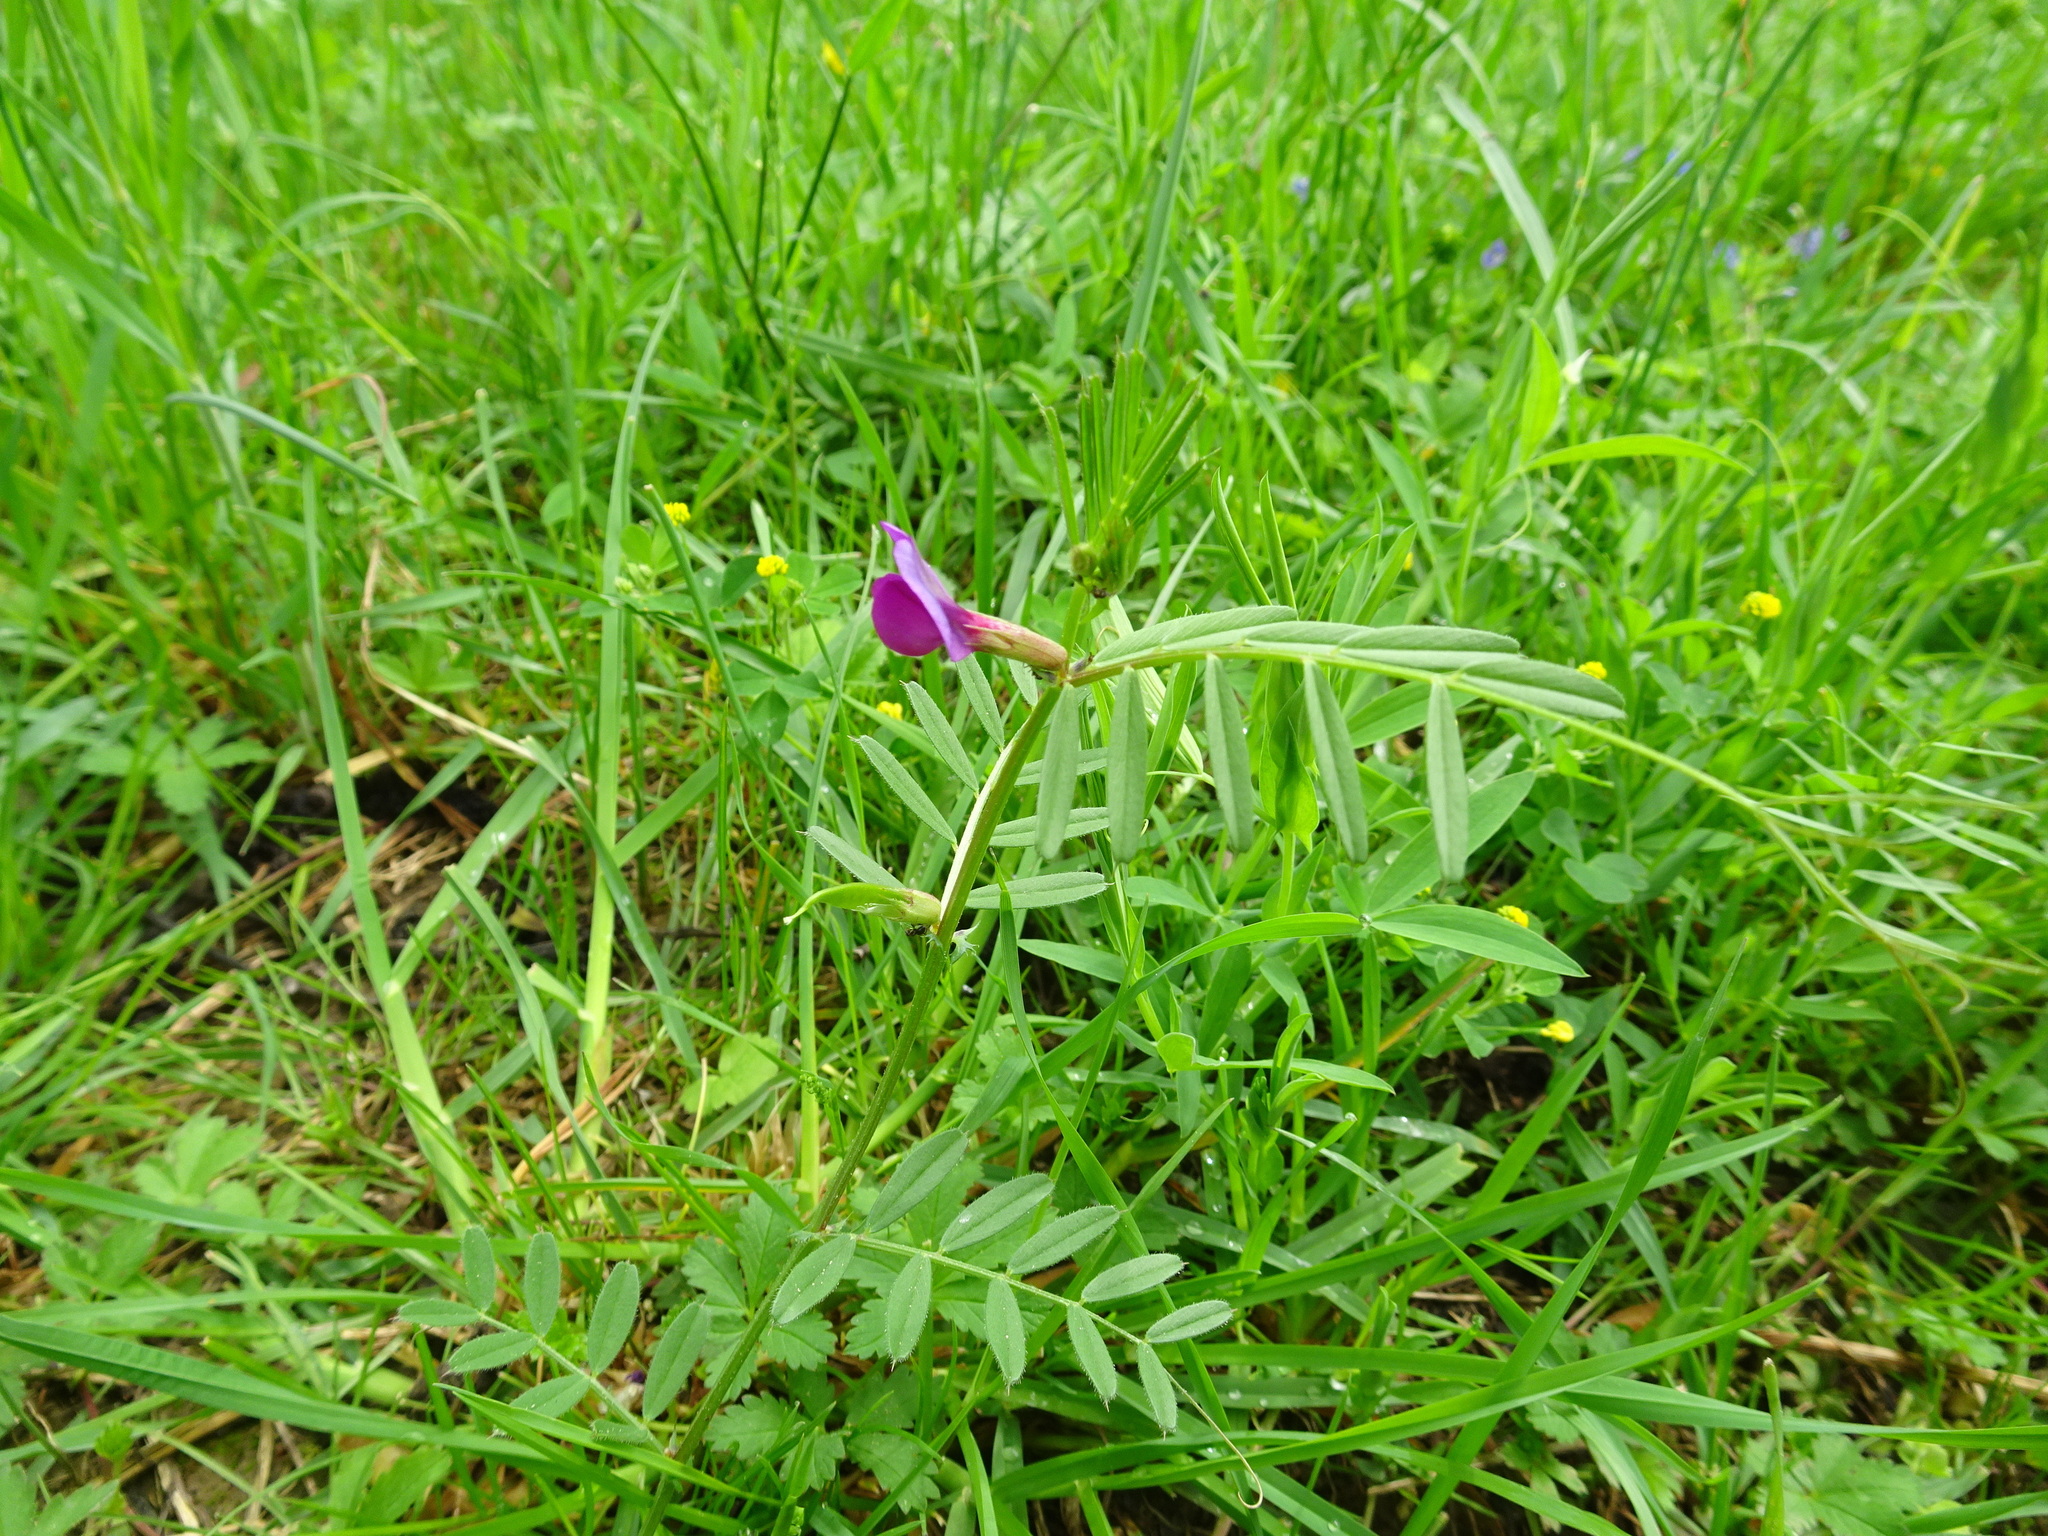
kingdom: Plantae
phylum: Tracheophyta
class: Magnoliopsida
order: Fabales
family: Fabaceae
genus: Vicia
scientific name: Vicia sativa
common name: Garden vetch
